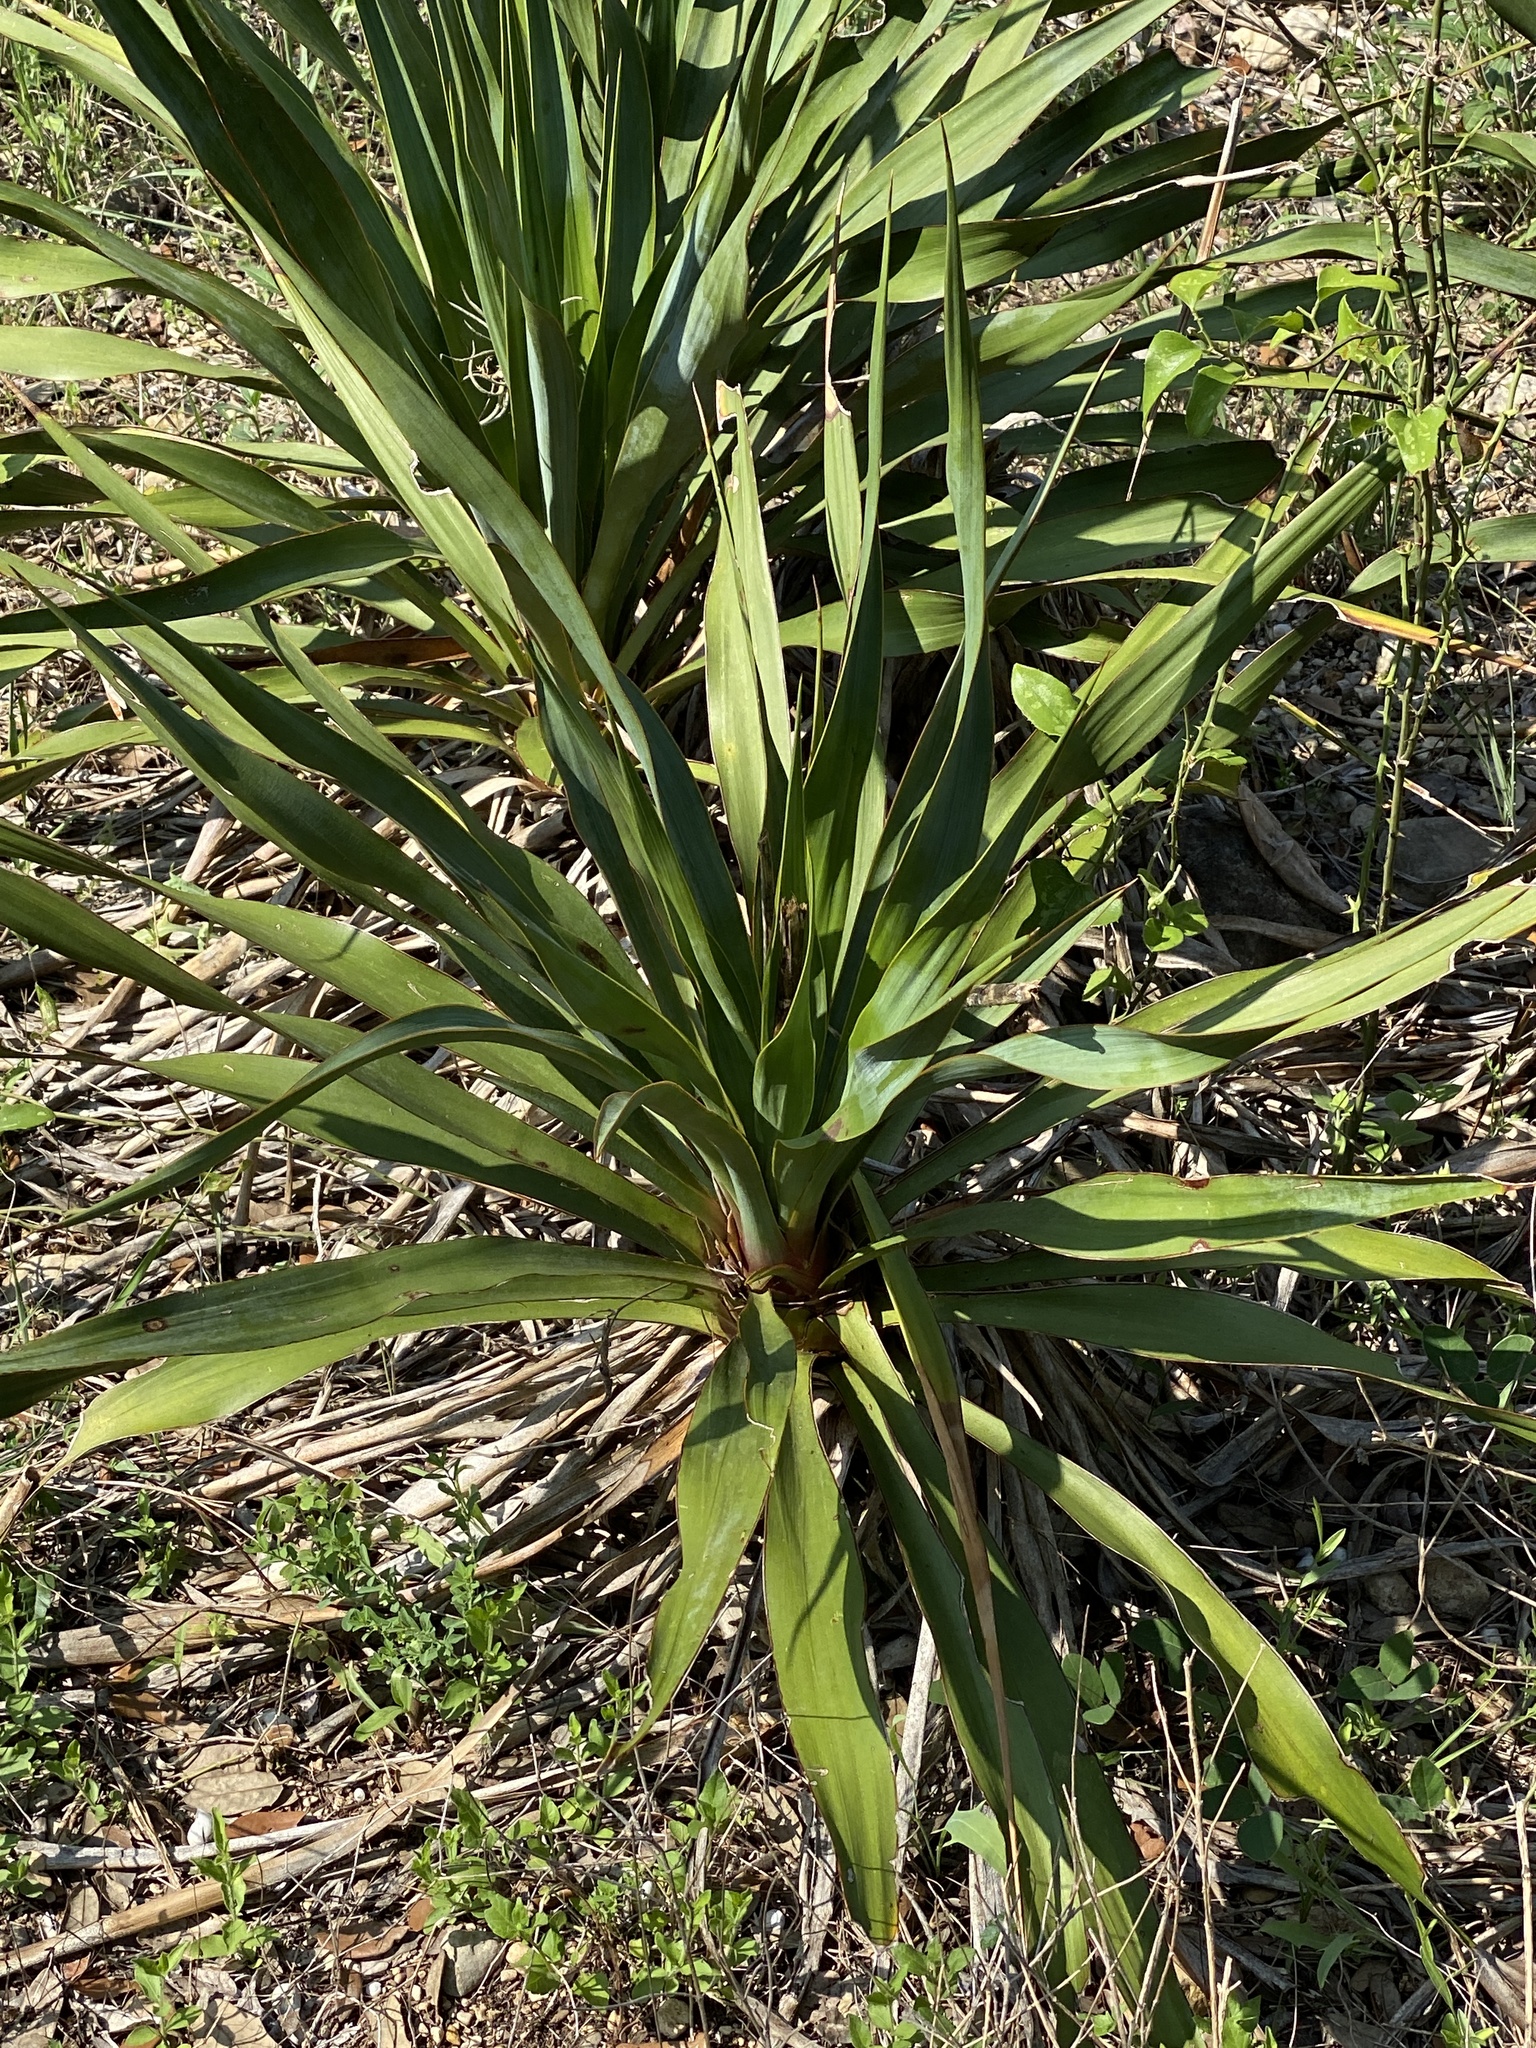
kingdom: Plantae
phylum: Tracheophyta
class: Liliopsida
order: Asparagales
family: Asparagaceae
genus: Yucca
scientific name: Yucca rupicola
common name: Twisted-leaf spanish-dagger
